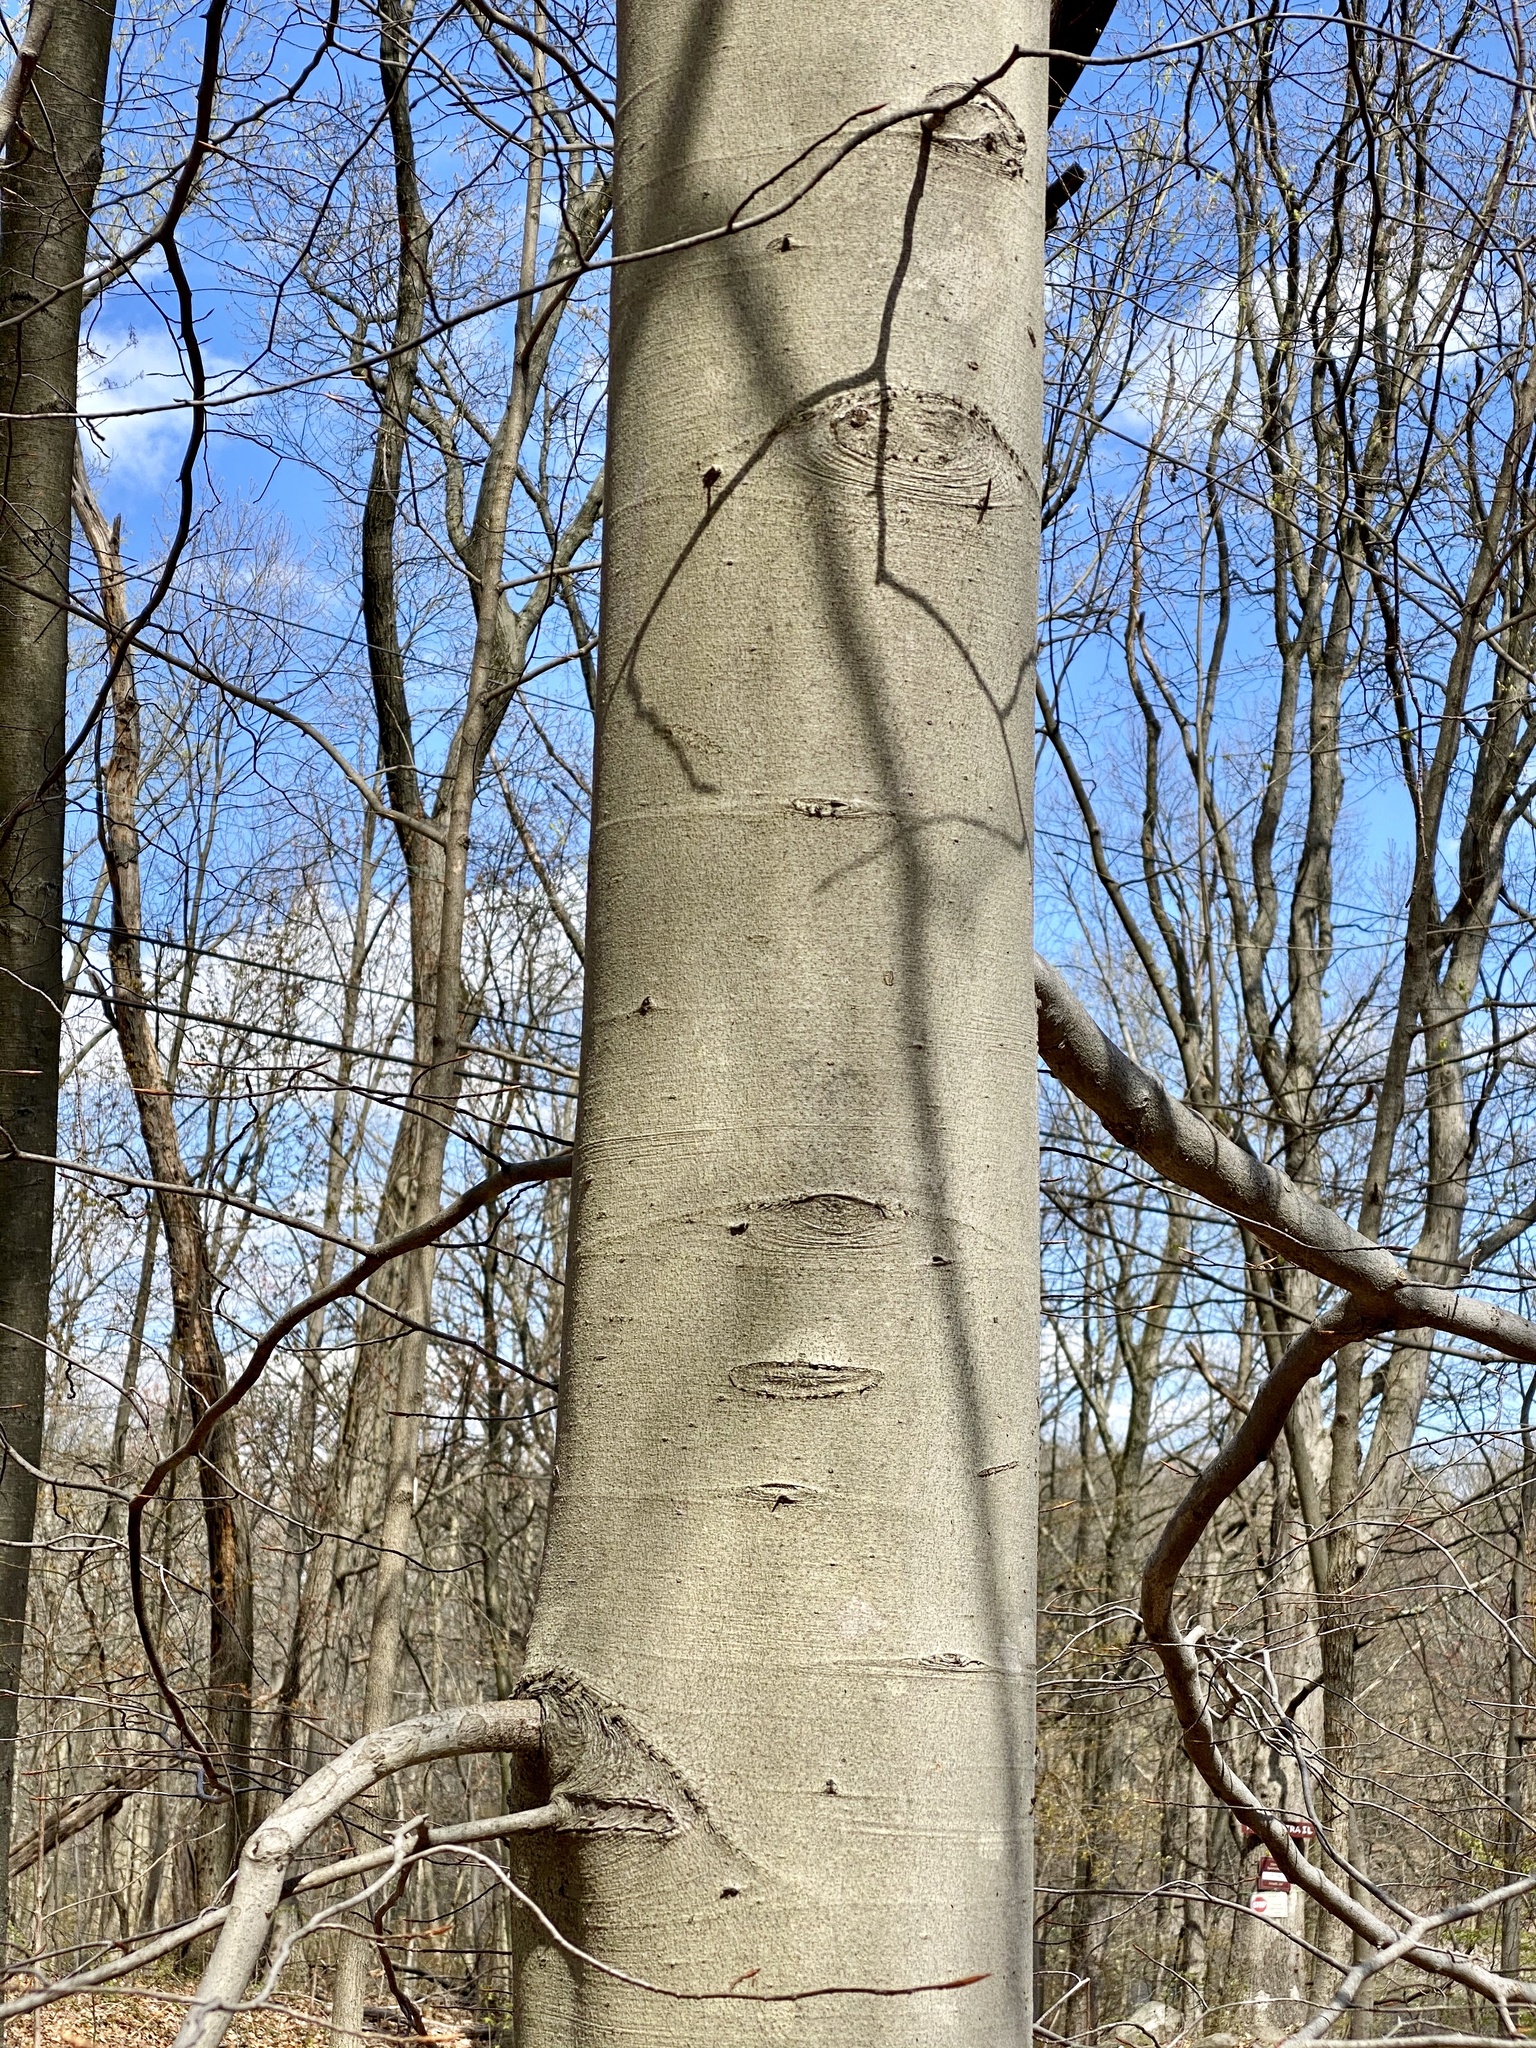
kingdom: Plantae
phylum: Tracheophyta
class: Magnoliopsida
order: Fagales
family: Fagaceae
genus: Fagus
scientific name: Fagus grandifolia
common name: American beech
